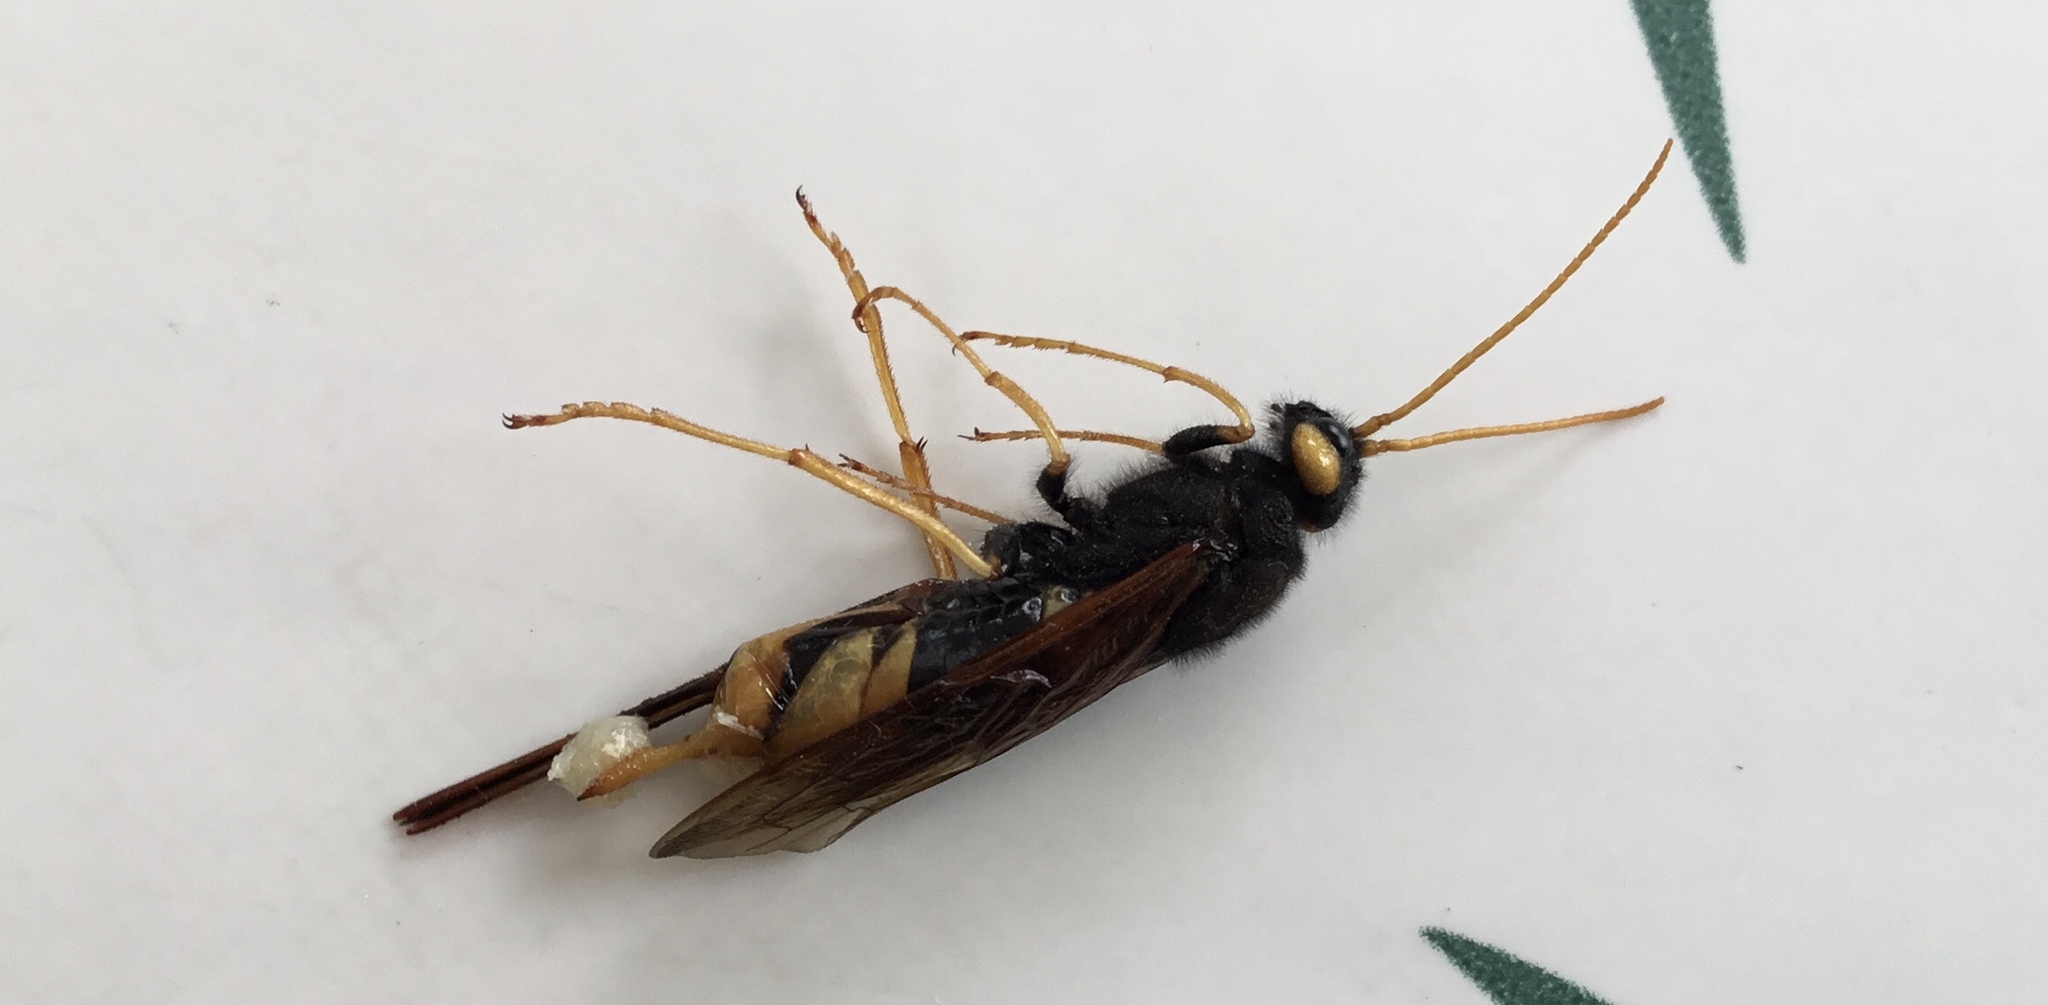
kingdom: Animalia
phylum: Arthropoda
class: Insecta
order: Hymenoptera
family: Siricidae
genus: Urocerus
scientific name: Urocerus gigas
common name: Giant woodwasp
